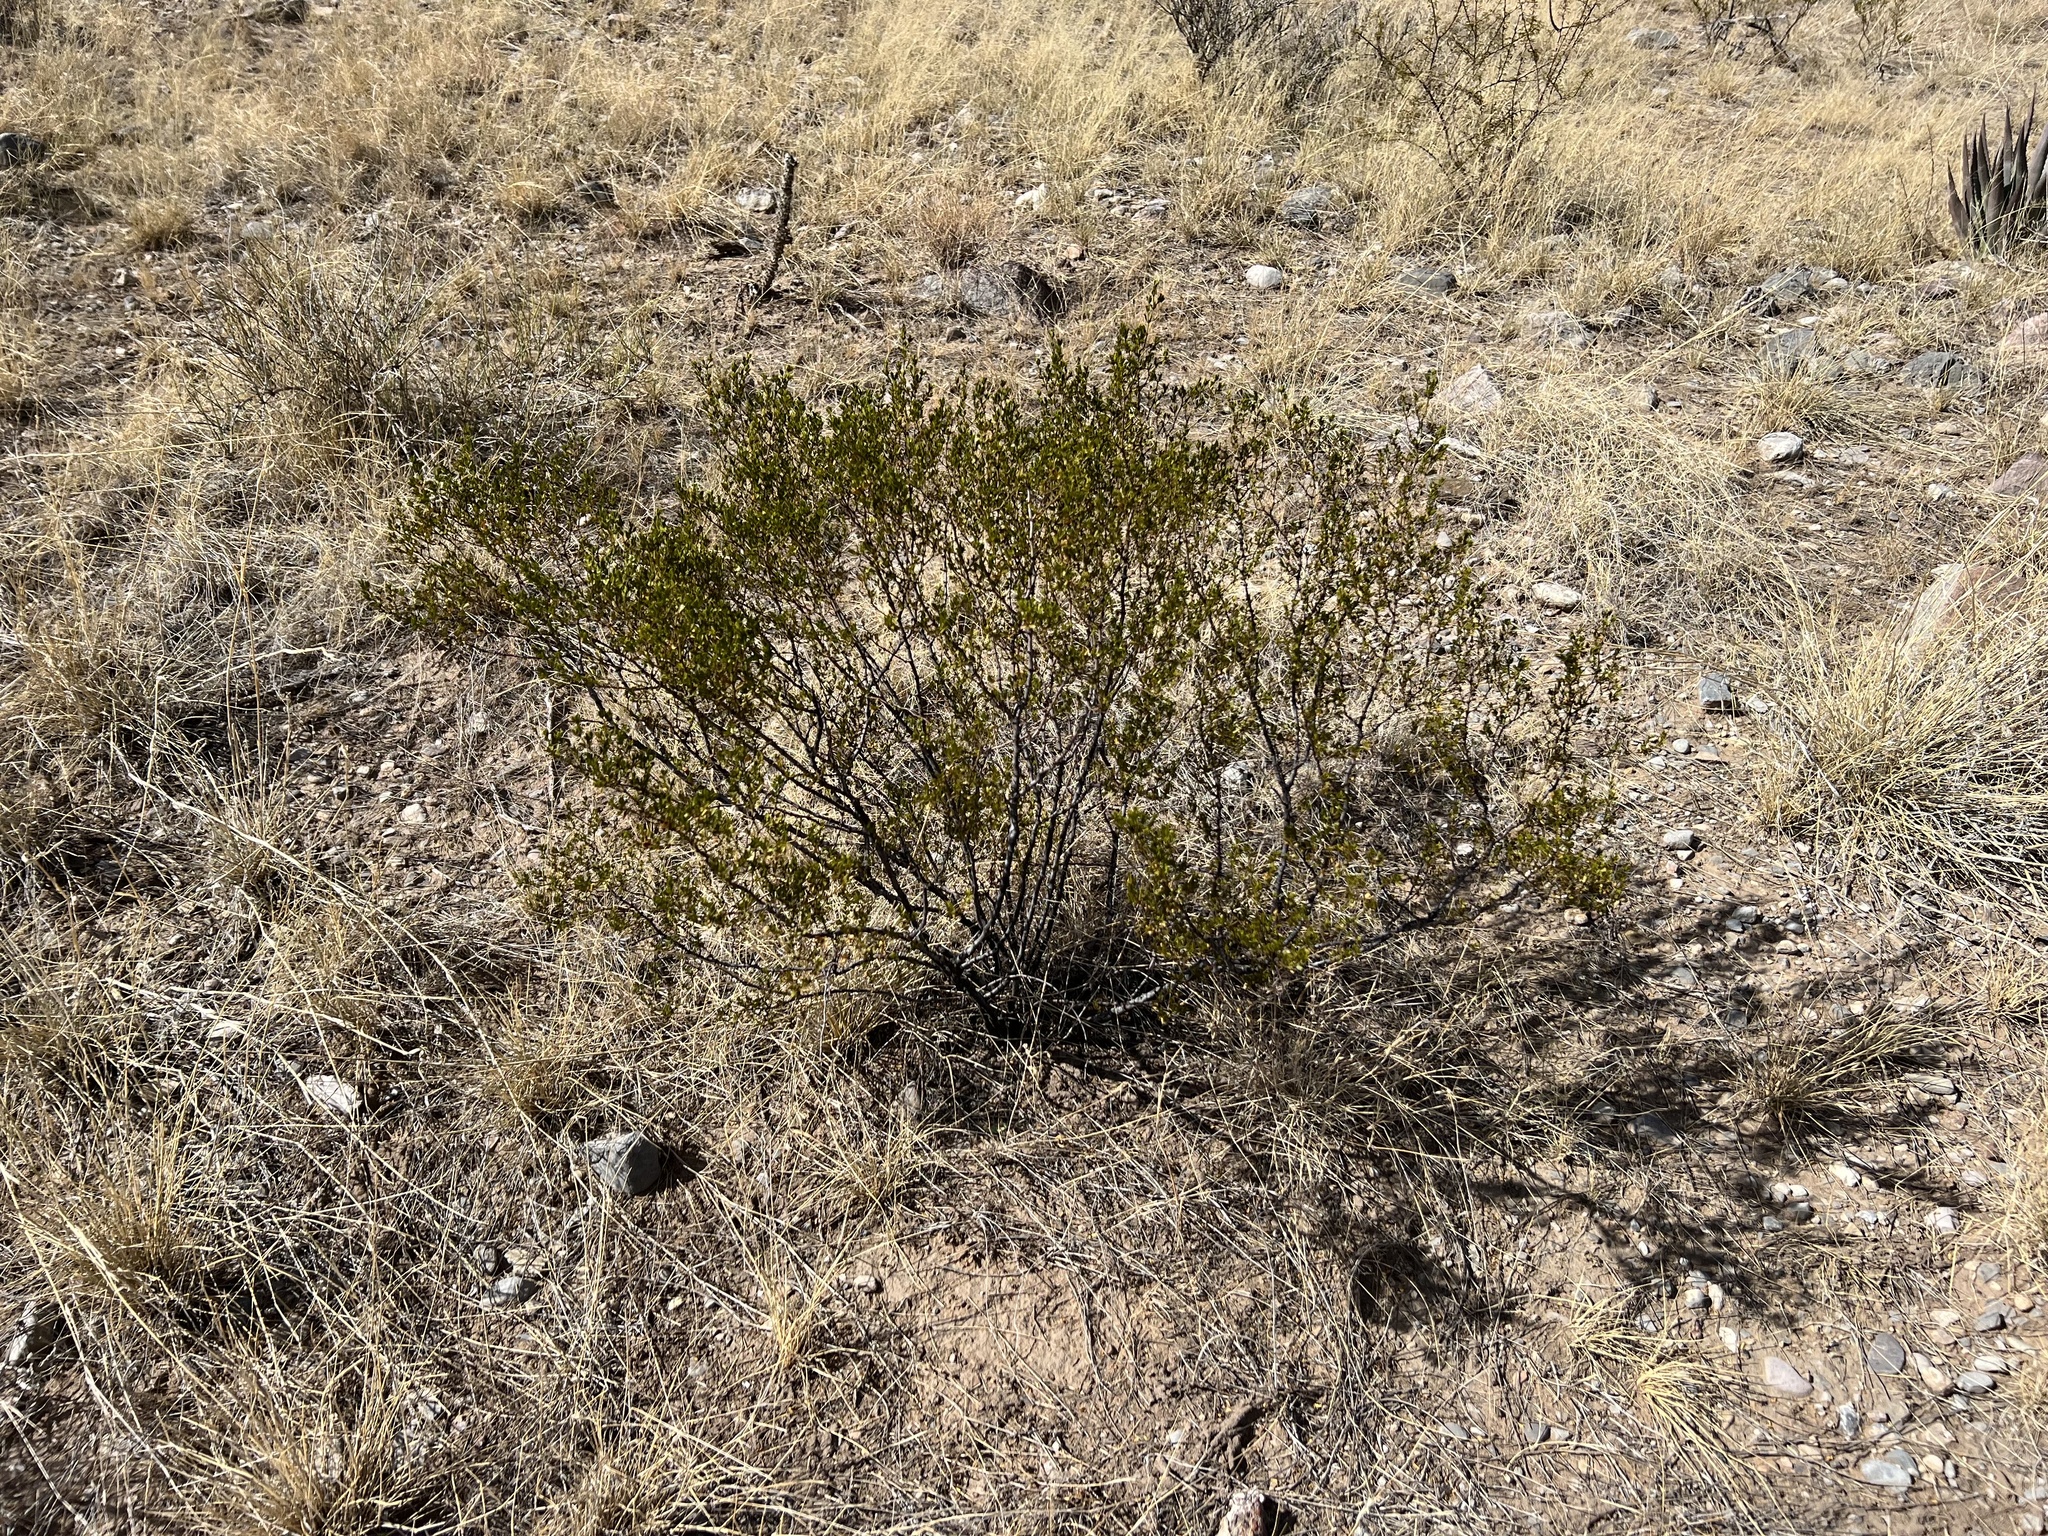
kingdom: Plantae
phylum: Tracheophyta
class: Magnoliopsida
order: Zygophyllales
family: Zygophyllaceae
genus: Larrea
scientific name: Larrea tridentata
